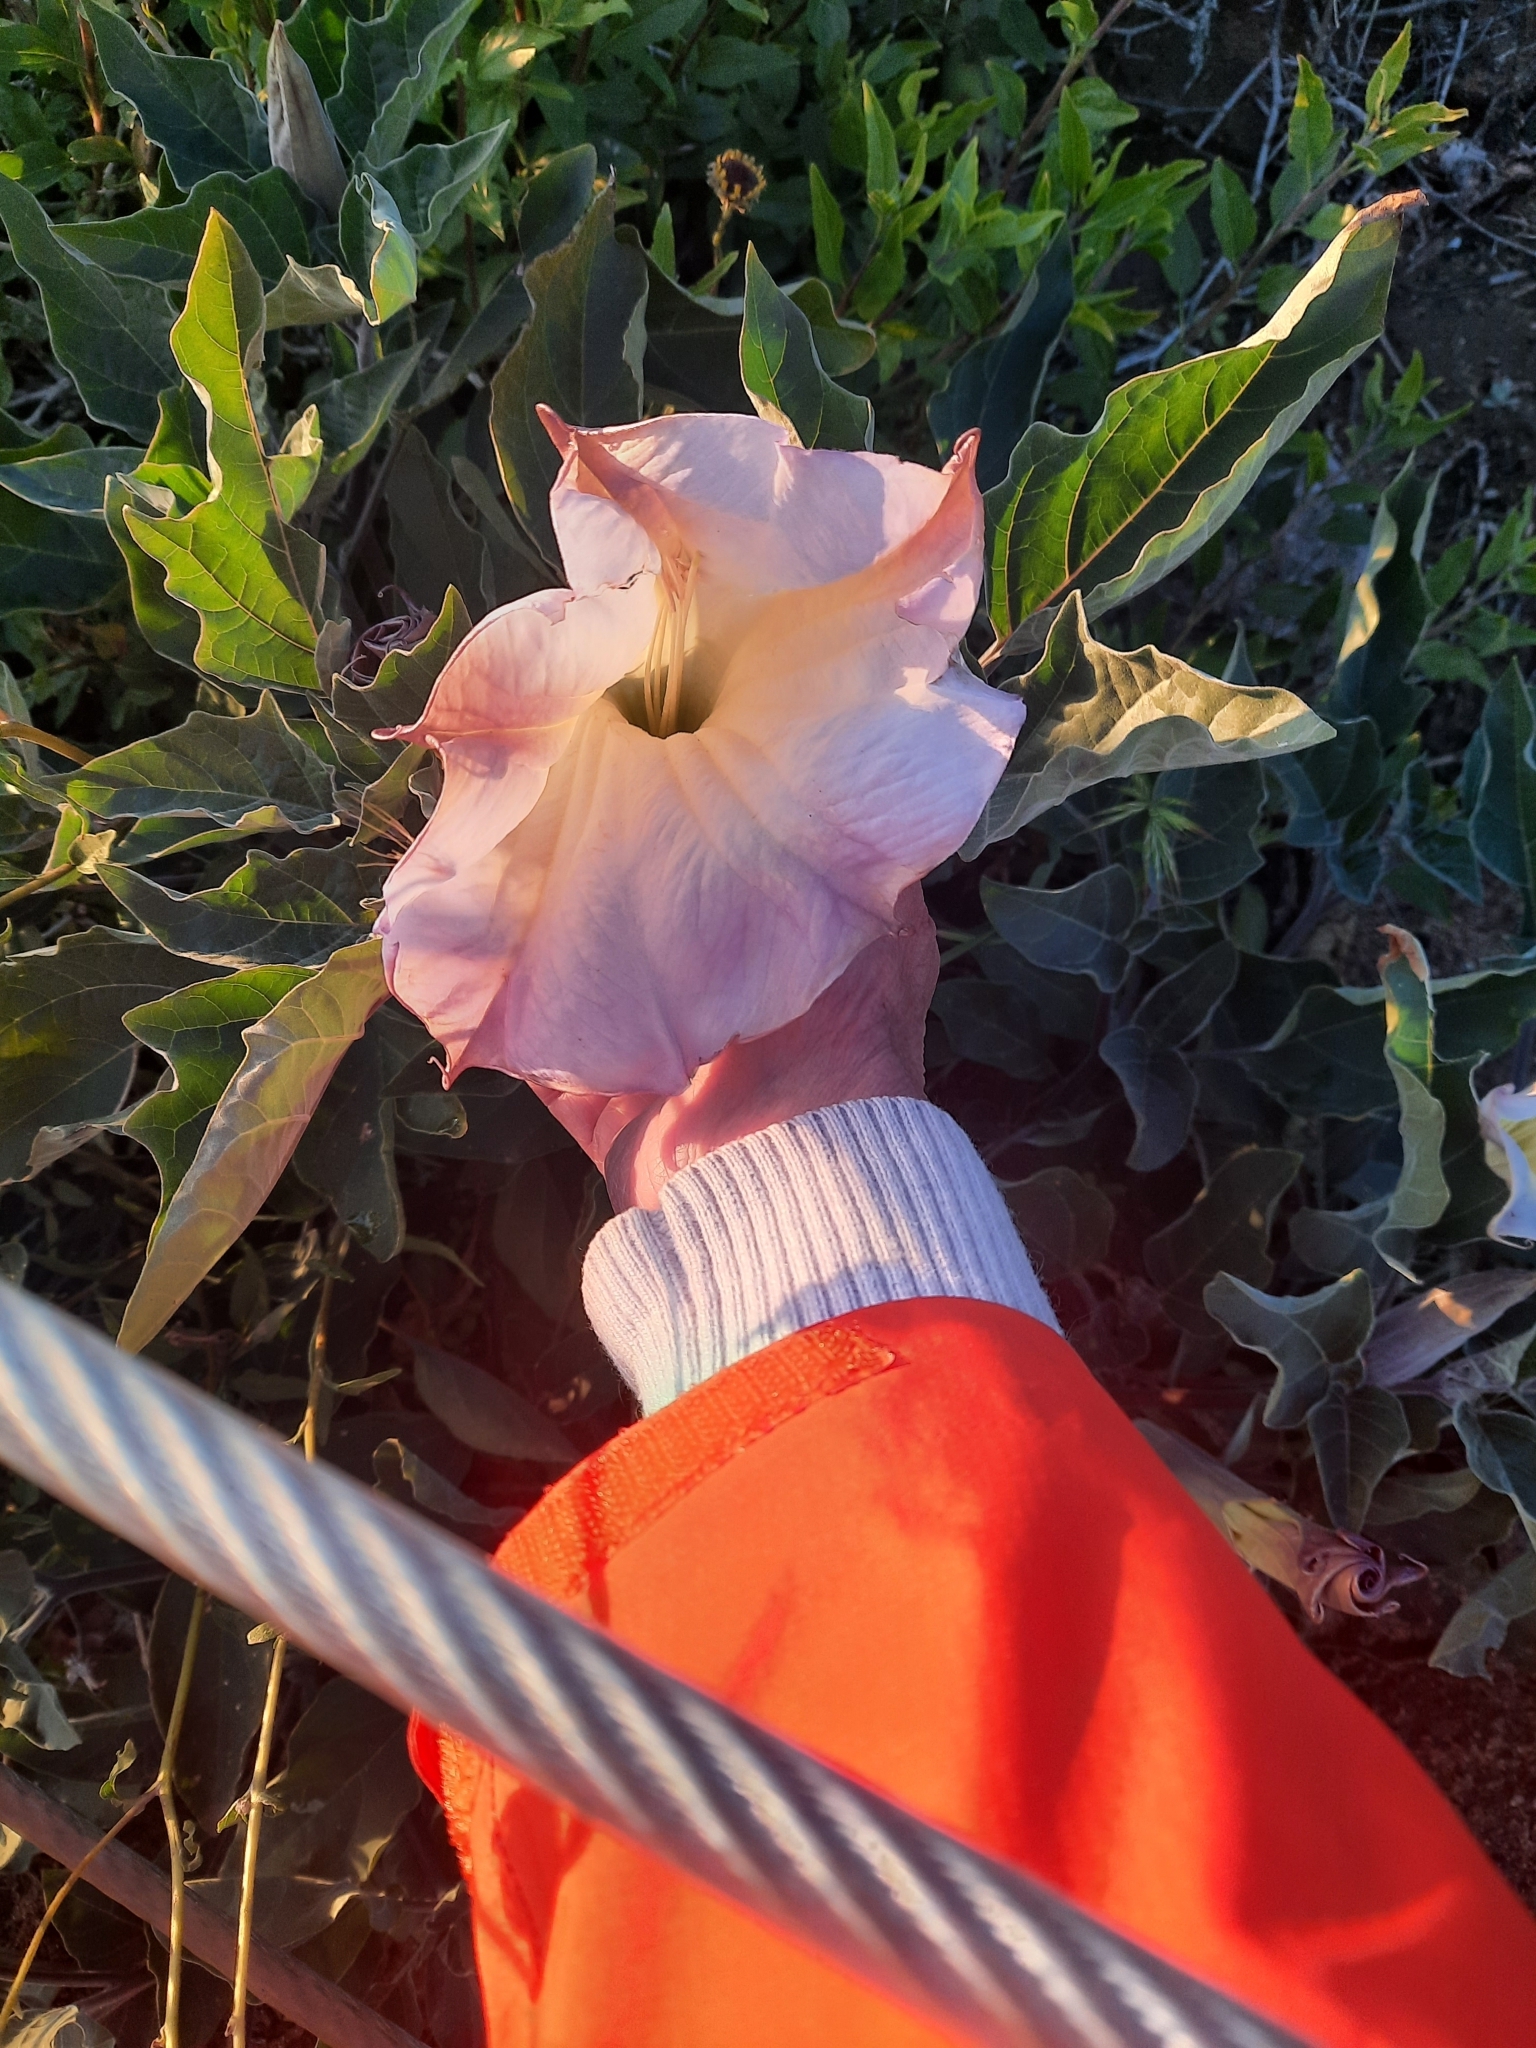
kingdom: Plantae
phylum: Tracheophyta
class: Magnoliopsida
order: Solanales
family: Solanaceae
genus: Datura
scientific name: Datura wrightii
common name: Sacred thorn-apple
